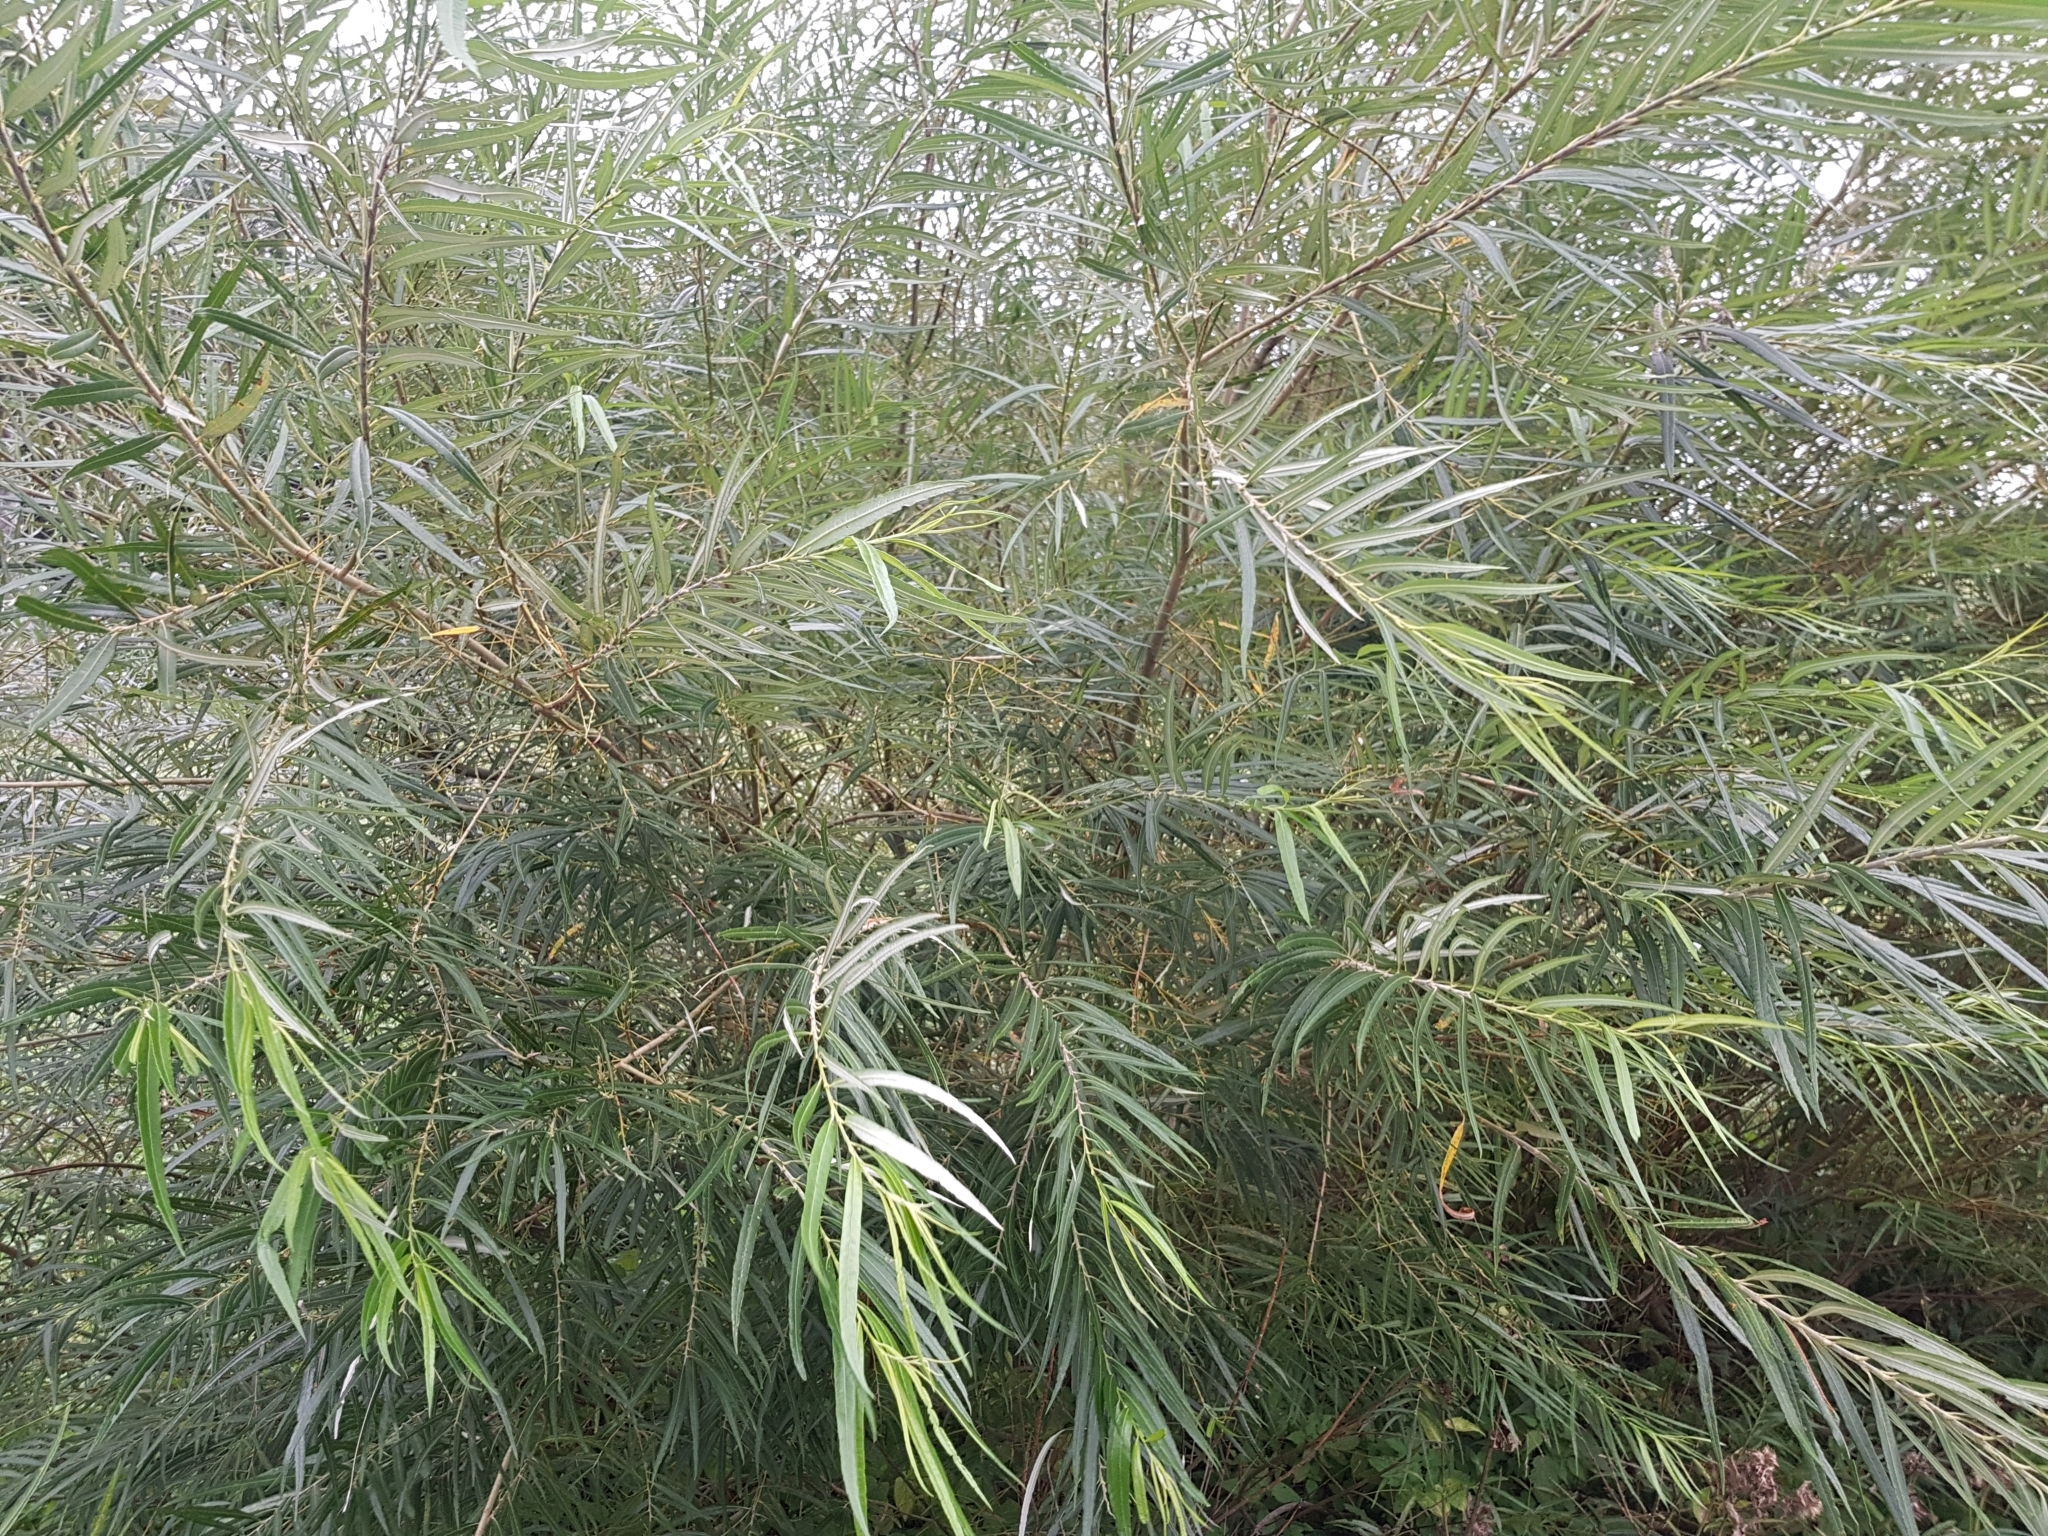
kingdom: Plantae
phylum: Tracheophyta
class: Magnoliopsida
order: Malpighiales
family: Salicaceae
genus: Salix
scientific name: Salix viminalis
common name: Osier
